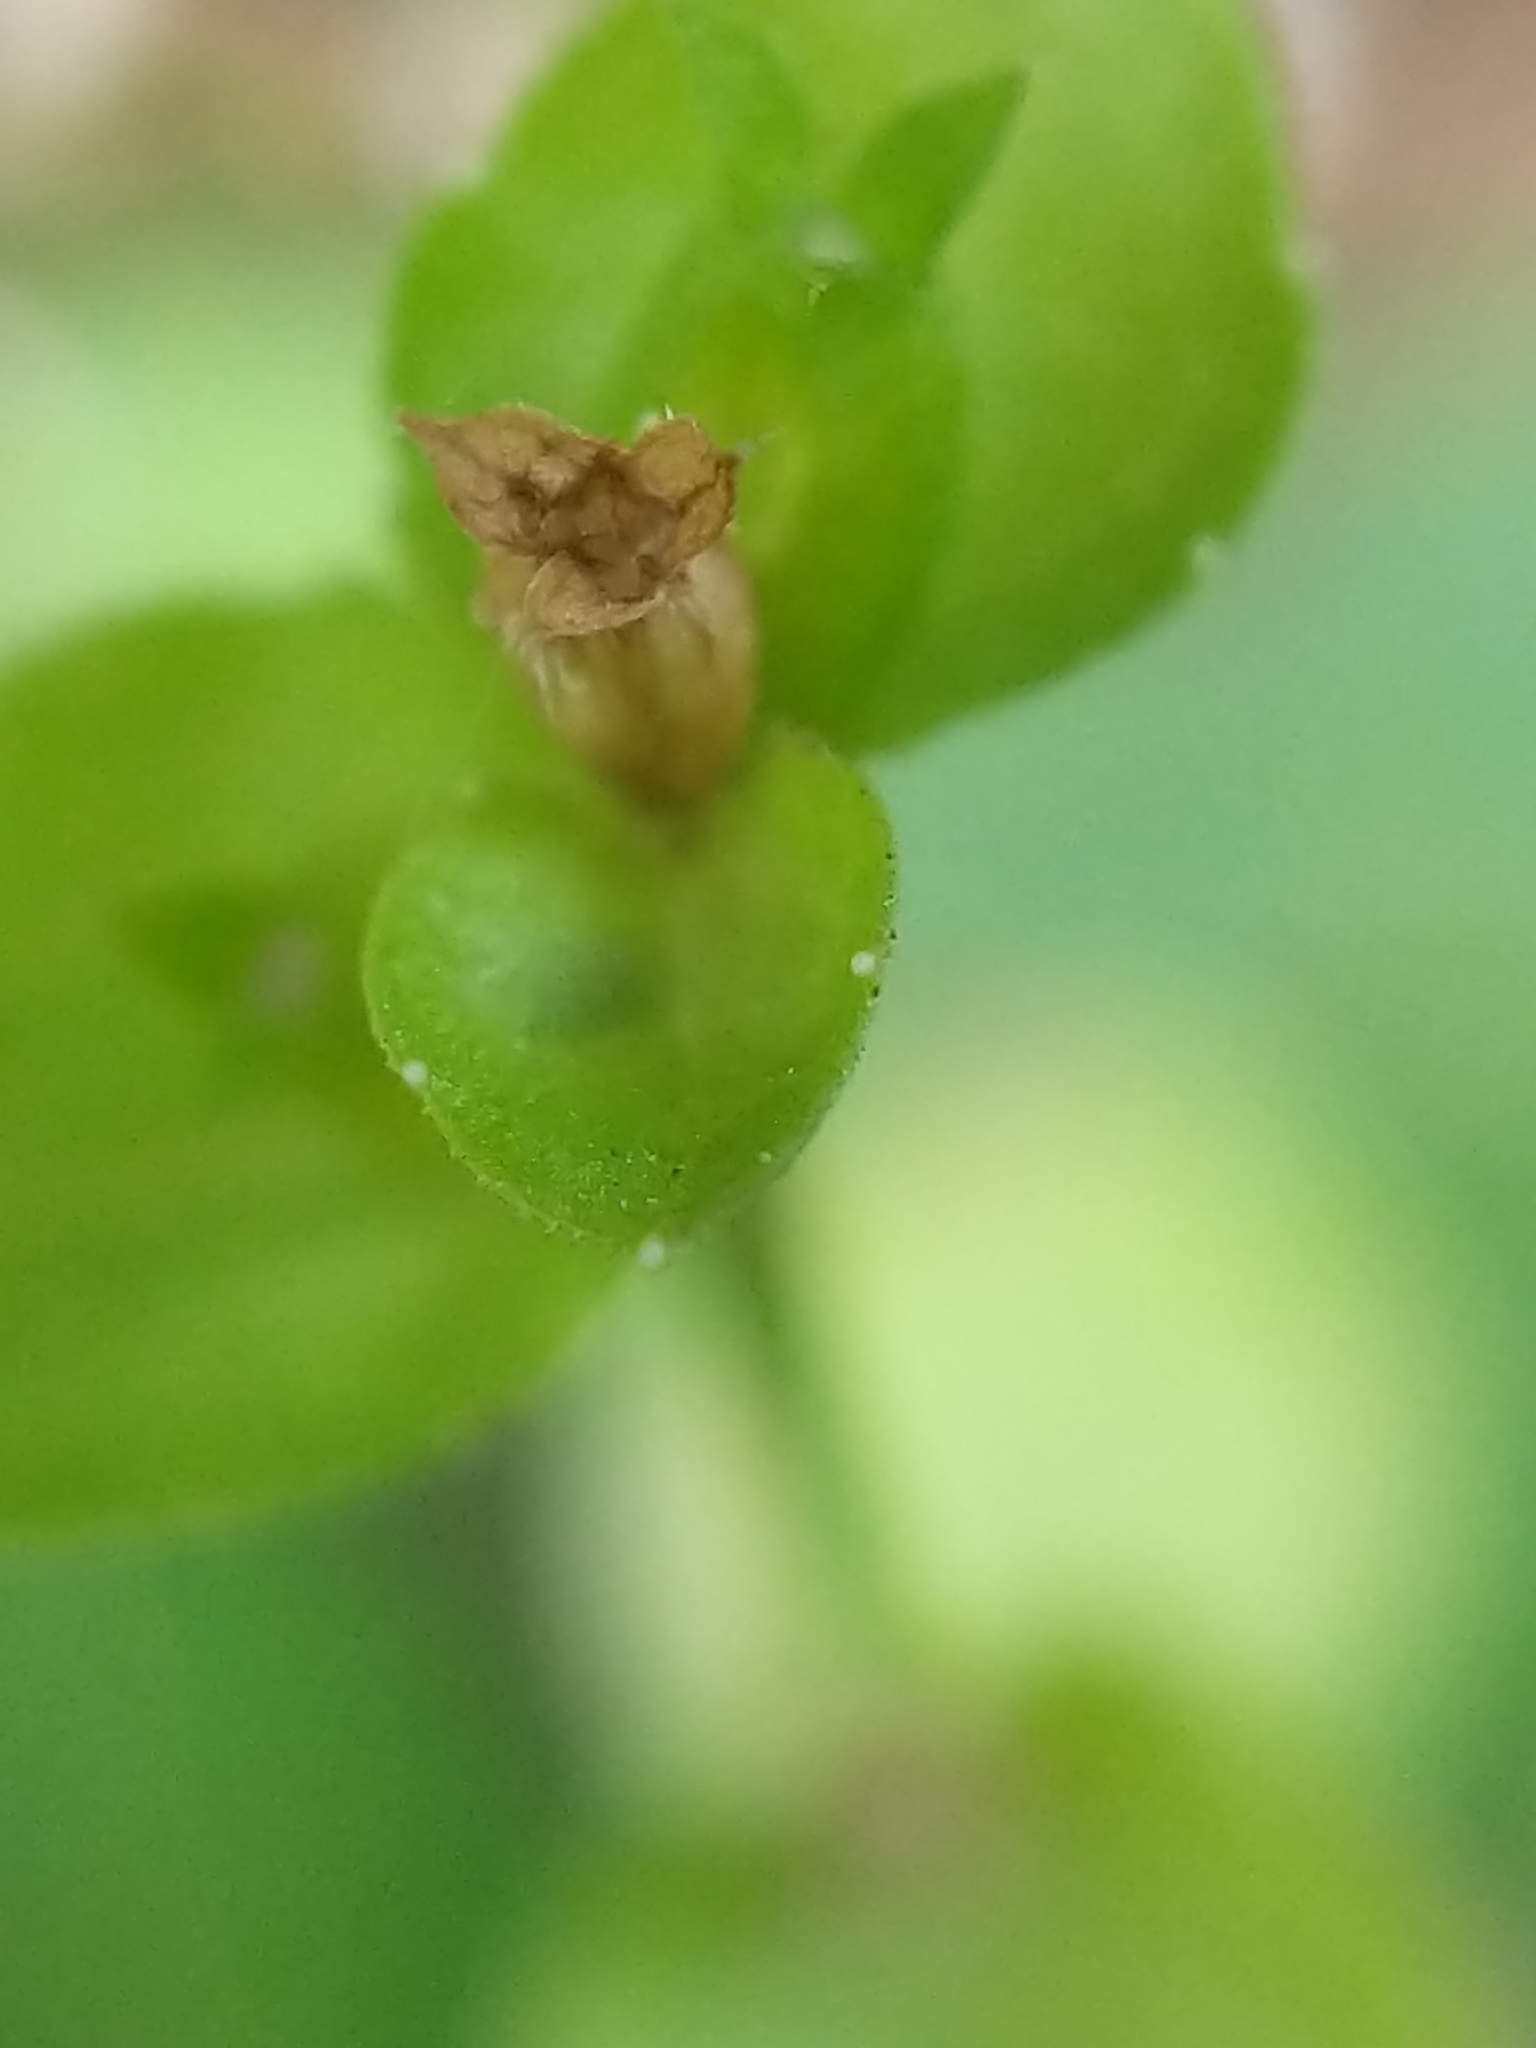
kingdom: Plantae
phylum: Tracheophyta
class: Magnoliopsida
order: Asterales
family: Campanulaceae
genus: Triodanis
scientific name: Triodanis perfoliata
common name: Clasping venus' looking-glass
